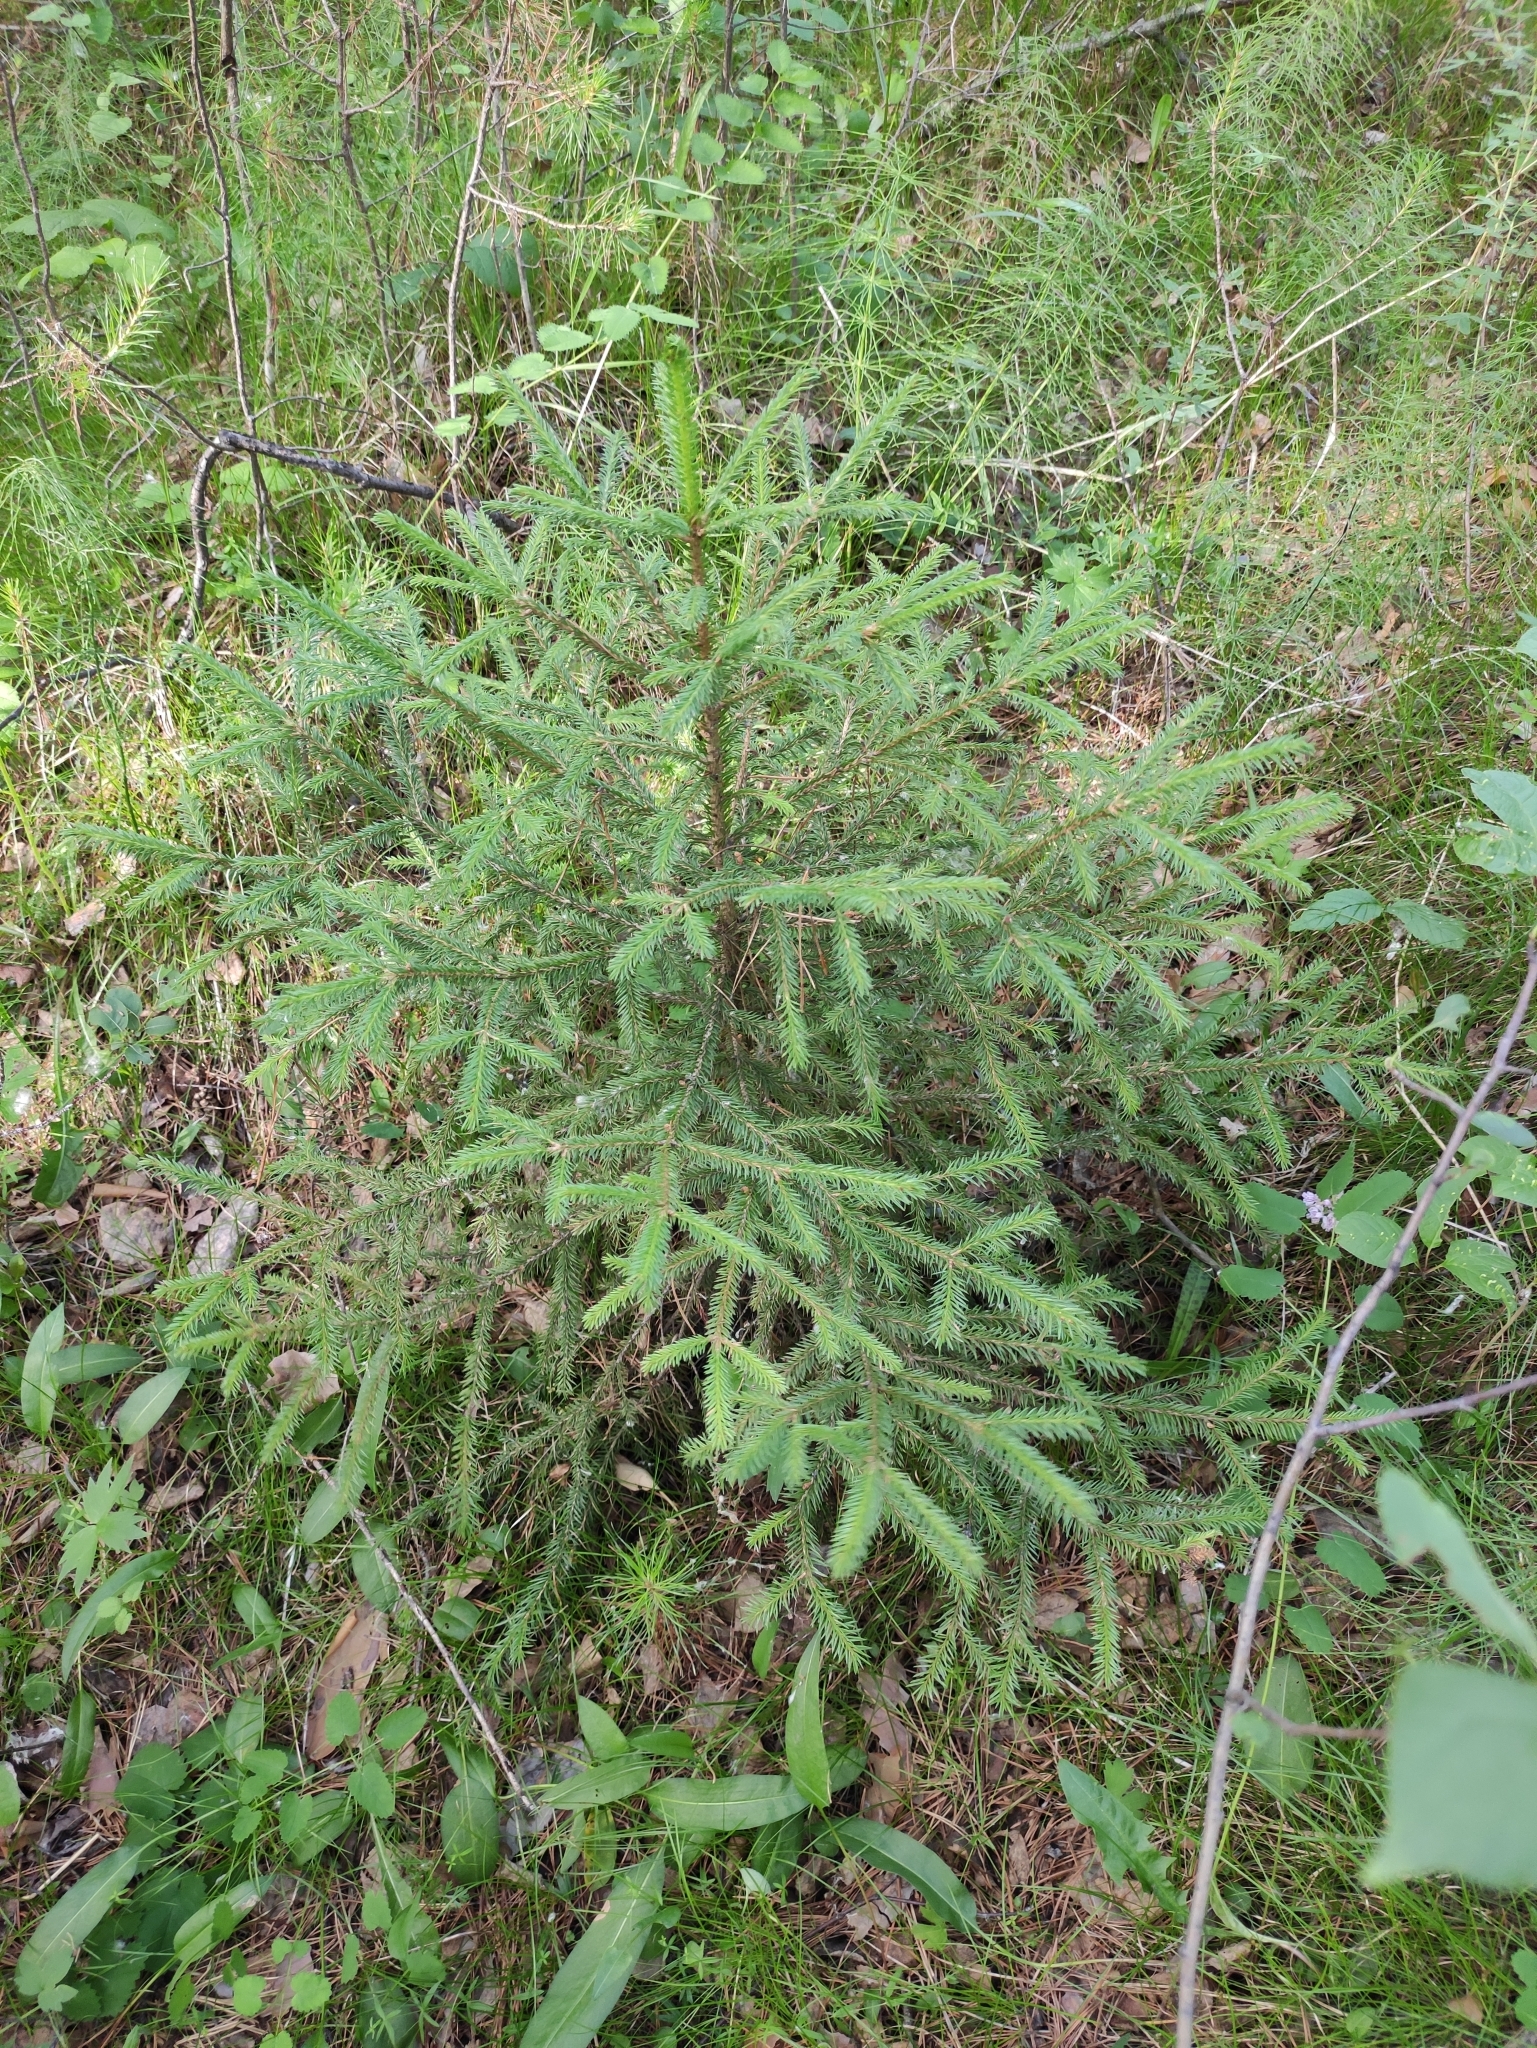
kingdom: Plantae
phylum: Tracheophyta
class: Pinopsida
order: Pinales
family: Pinaceae
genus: Picea
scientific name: Picea obovata
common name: Siberian spruce
